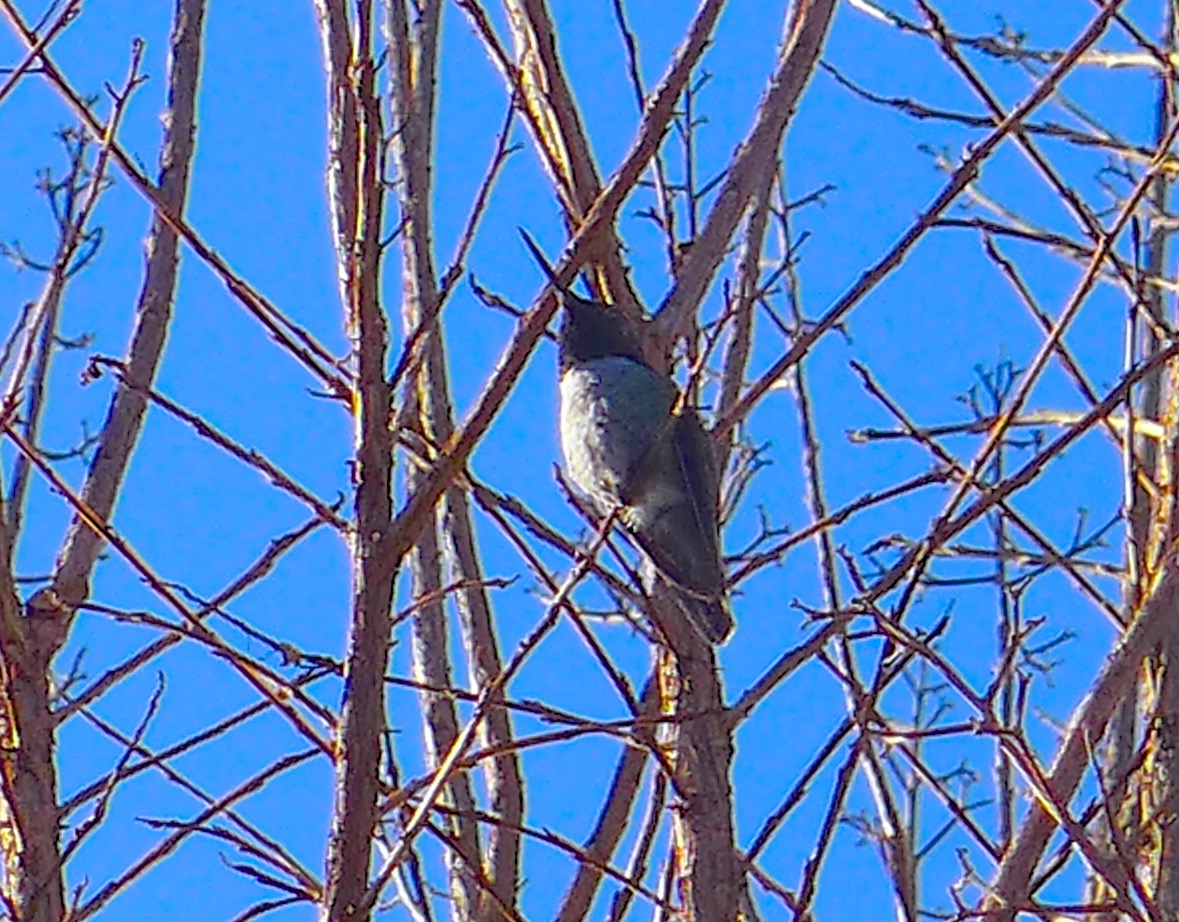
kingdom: Animalia
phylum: Chordata
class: Aves
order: Apodiformes
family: Trochilidae
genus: Calypte
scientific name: Calypte anna
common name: Anna's hummingbird
